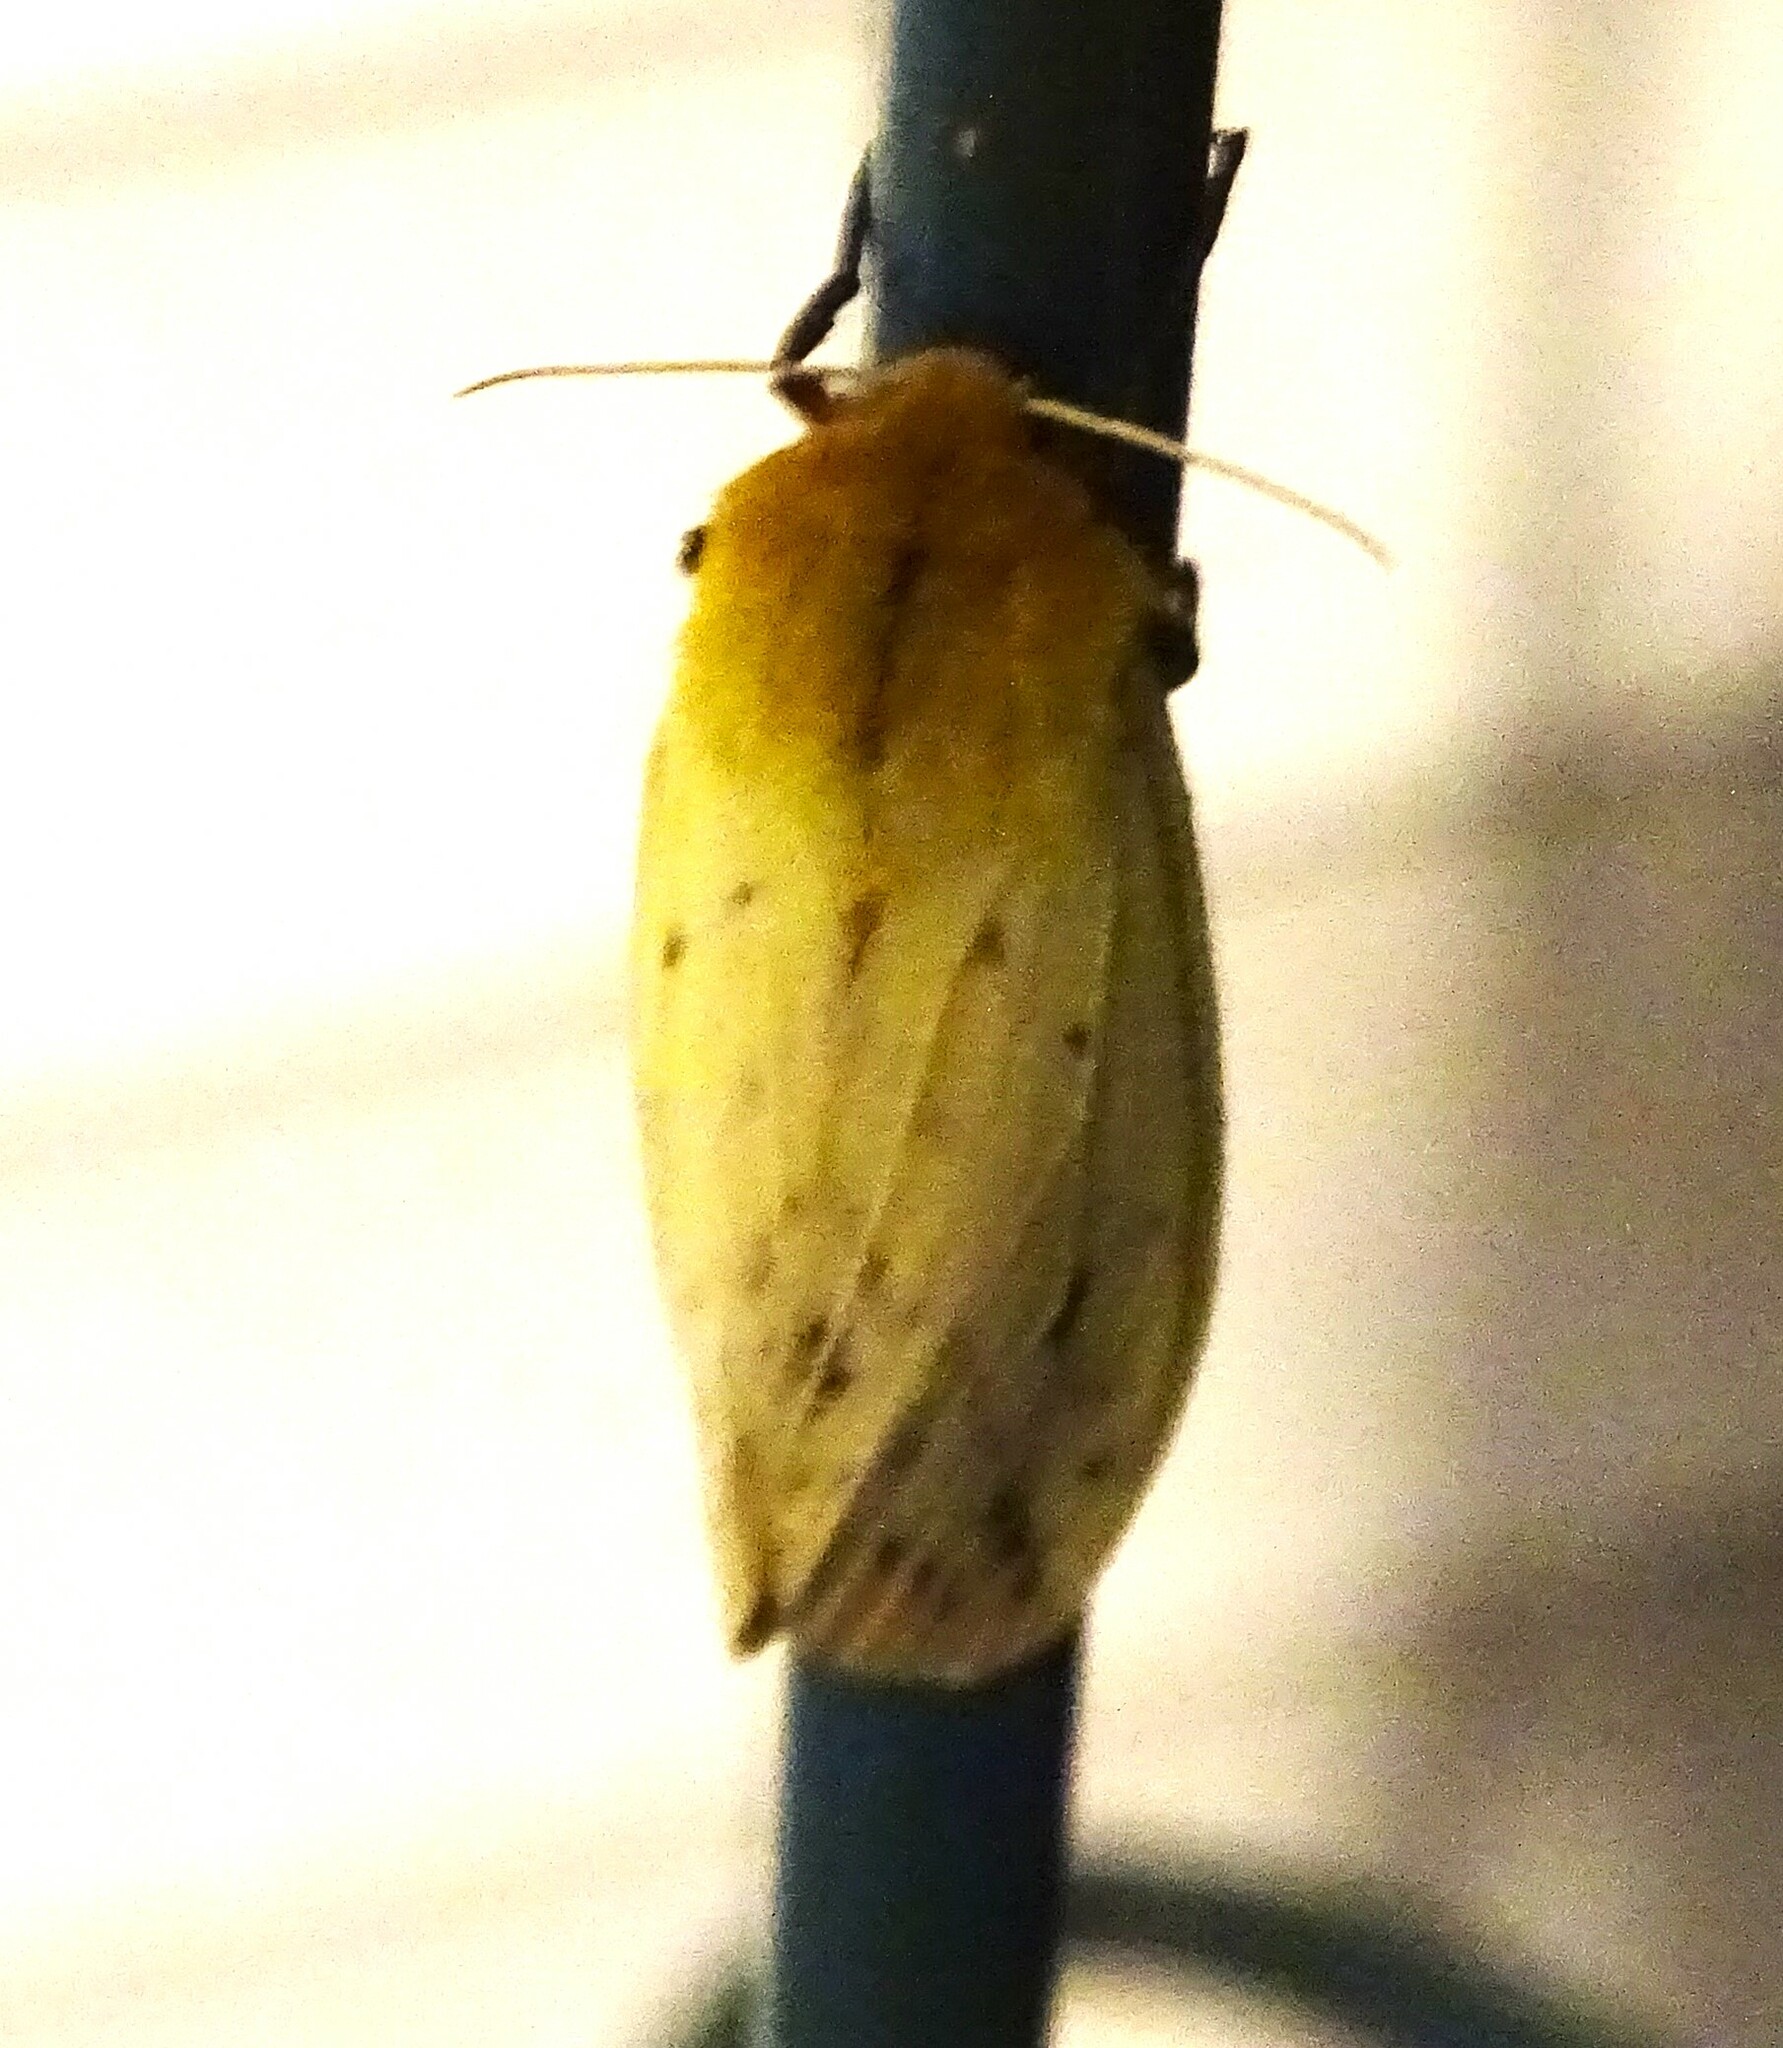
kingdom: Animalia
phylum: Arthropoda
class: Insecta
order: Lepidoptera
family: Erebidae
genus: Pyrrharctia
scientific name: Pyrrharctia isabella
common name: Isabella tiger moth
